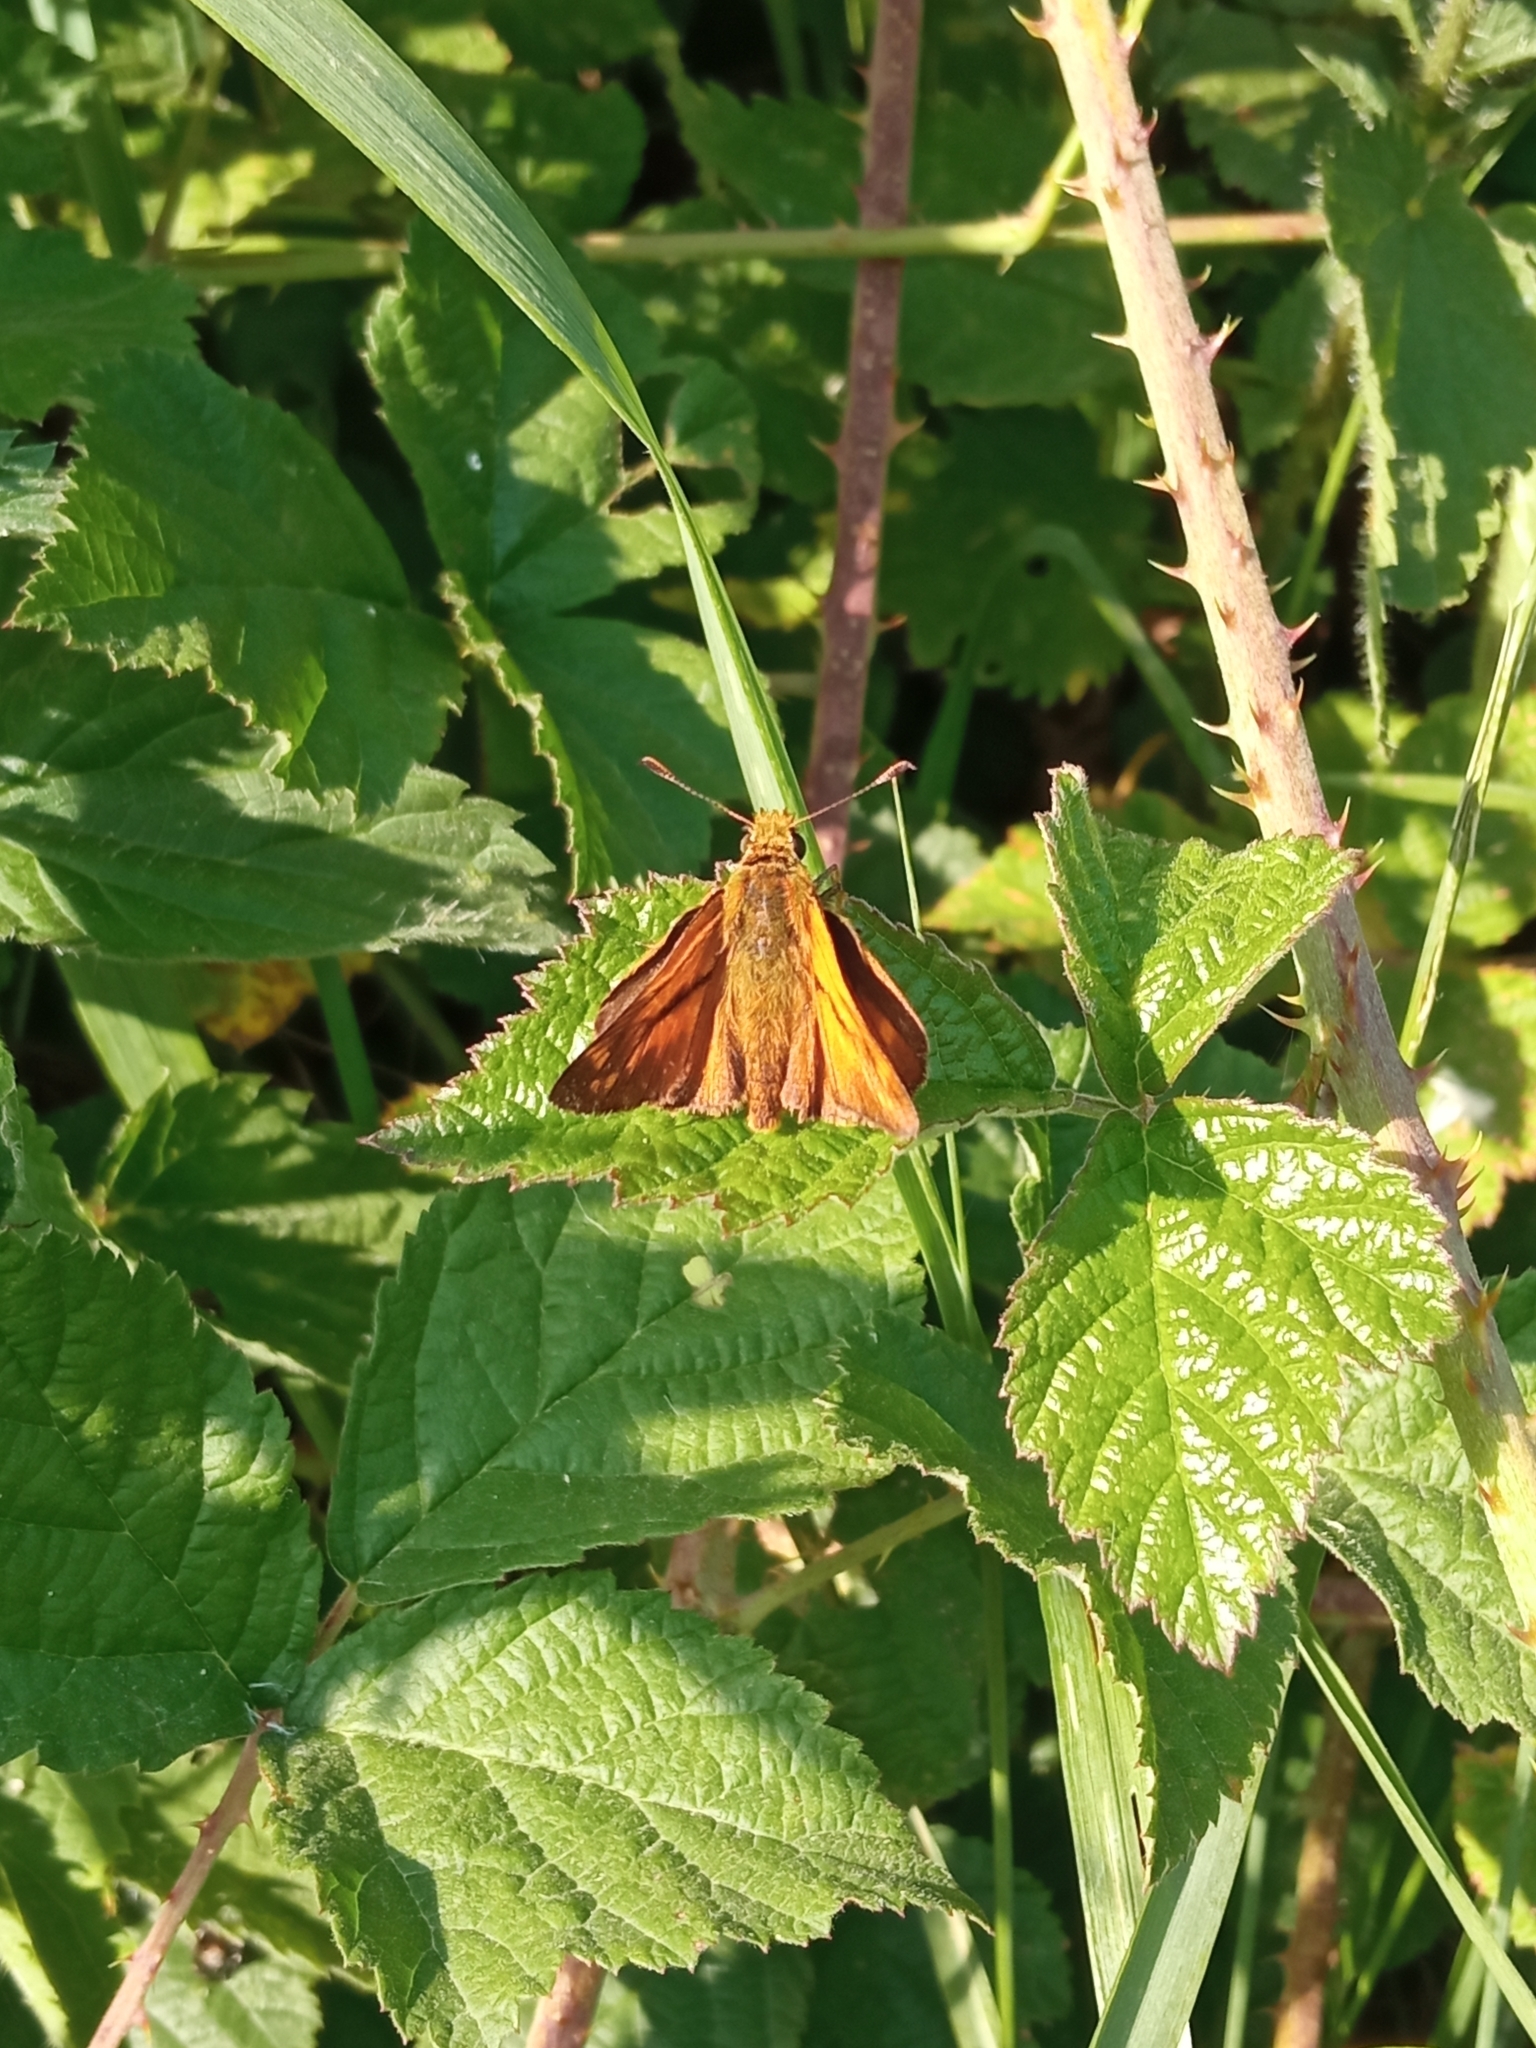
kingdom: Animalia
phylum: Arthropoda
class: Insecta
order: Lepidoptera
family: Hesperiidae
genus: Ochlodes
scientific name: Ochlodes venata
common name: Large skipper
